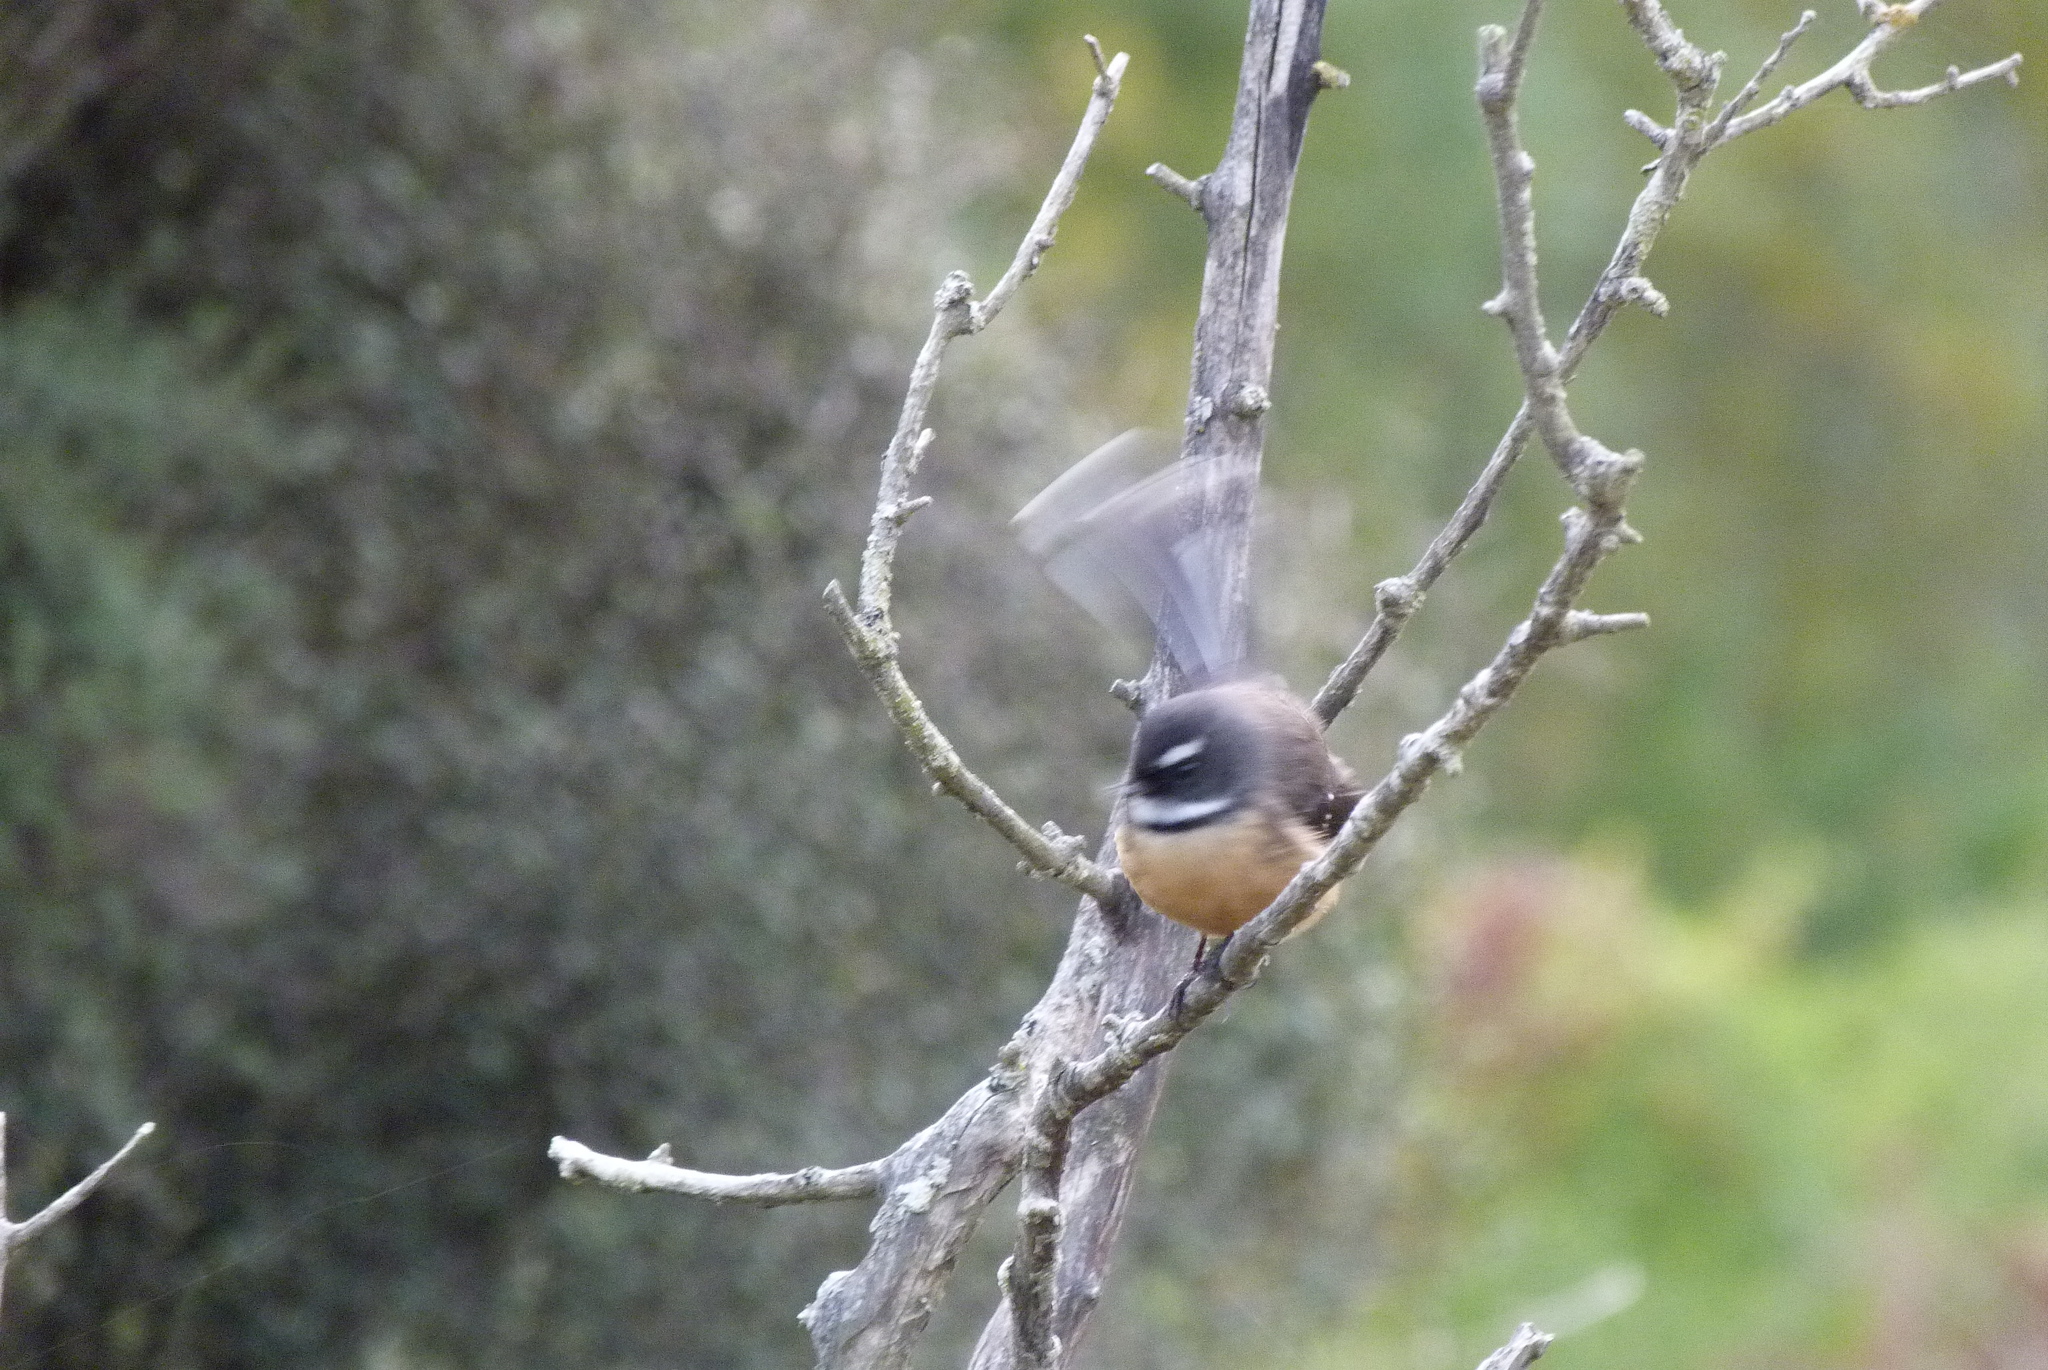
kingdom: Animalia
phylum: Chordata
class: Aves
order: Passeriformes
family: Rhipiduridae
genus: Rhipidura
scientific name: Rhipidura fuliginosa
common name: New zealand fantail
